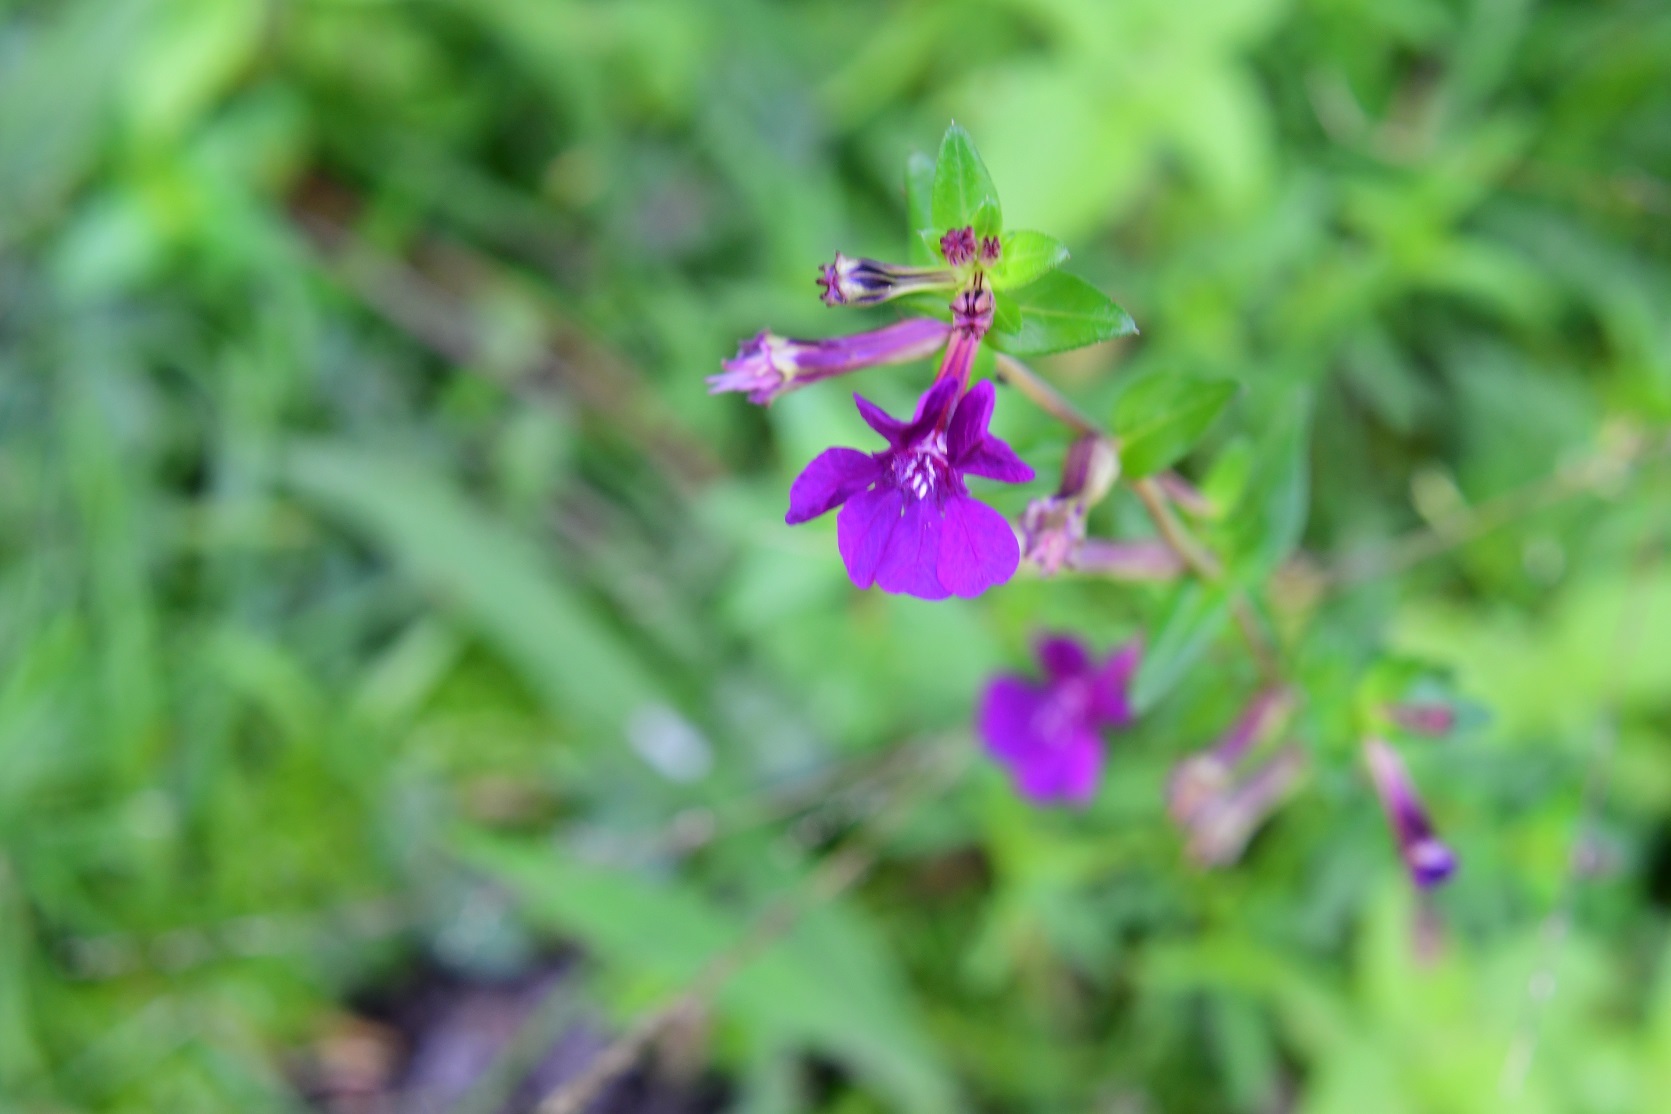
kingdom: Plantae
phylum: Tracheophyta
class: Magnoliopsida
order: Myrtales
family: Lythraceae
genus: Cuphea
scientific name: Cuphea aequipetala
